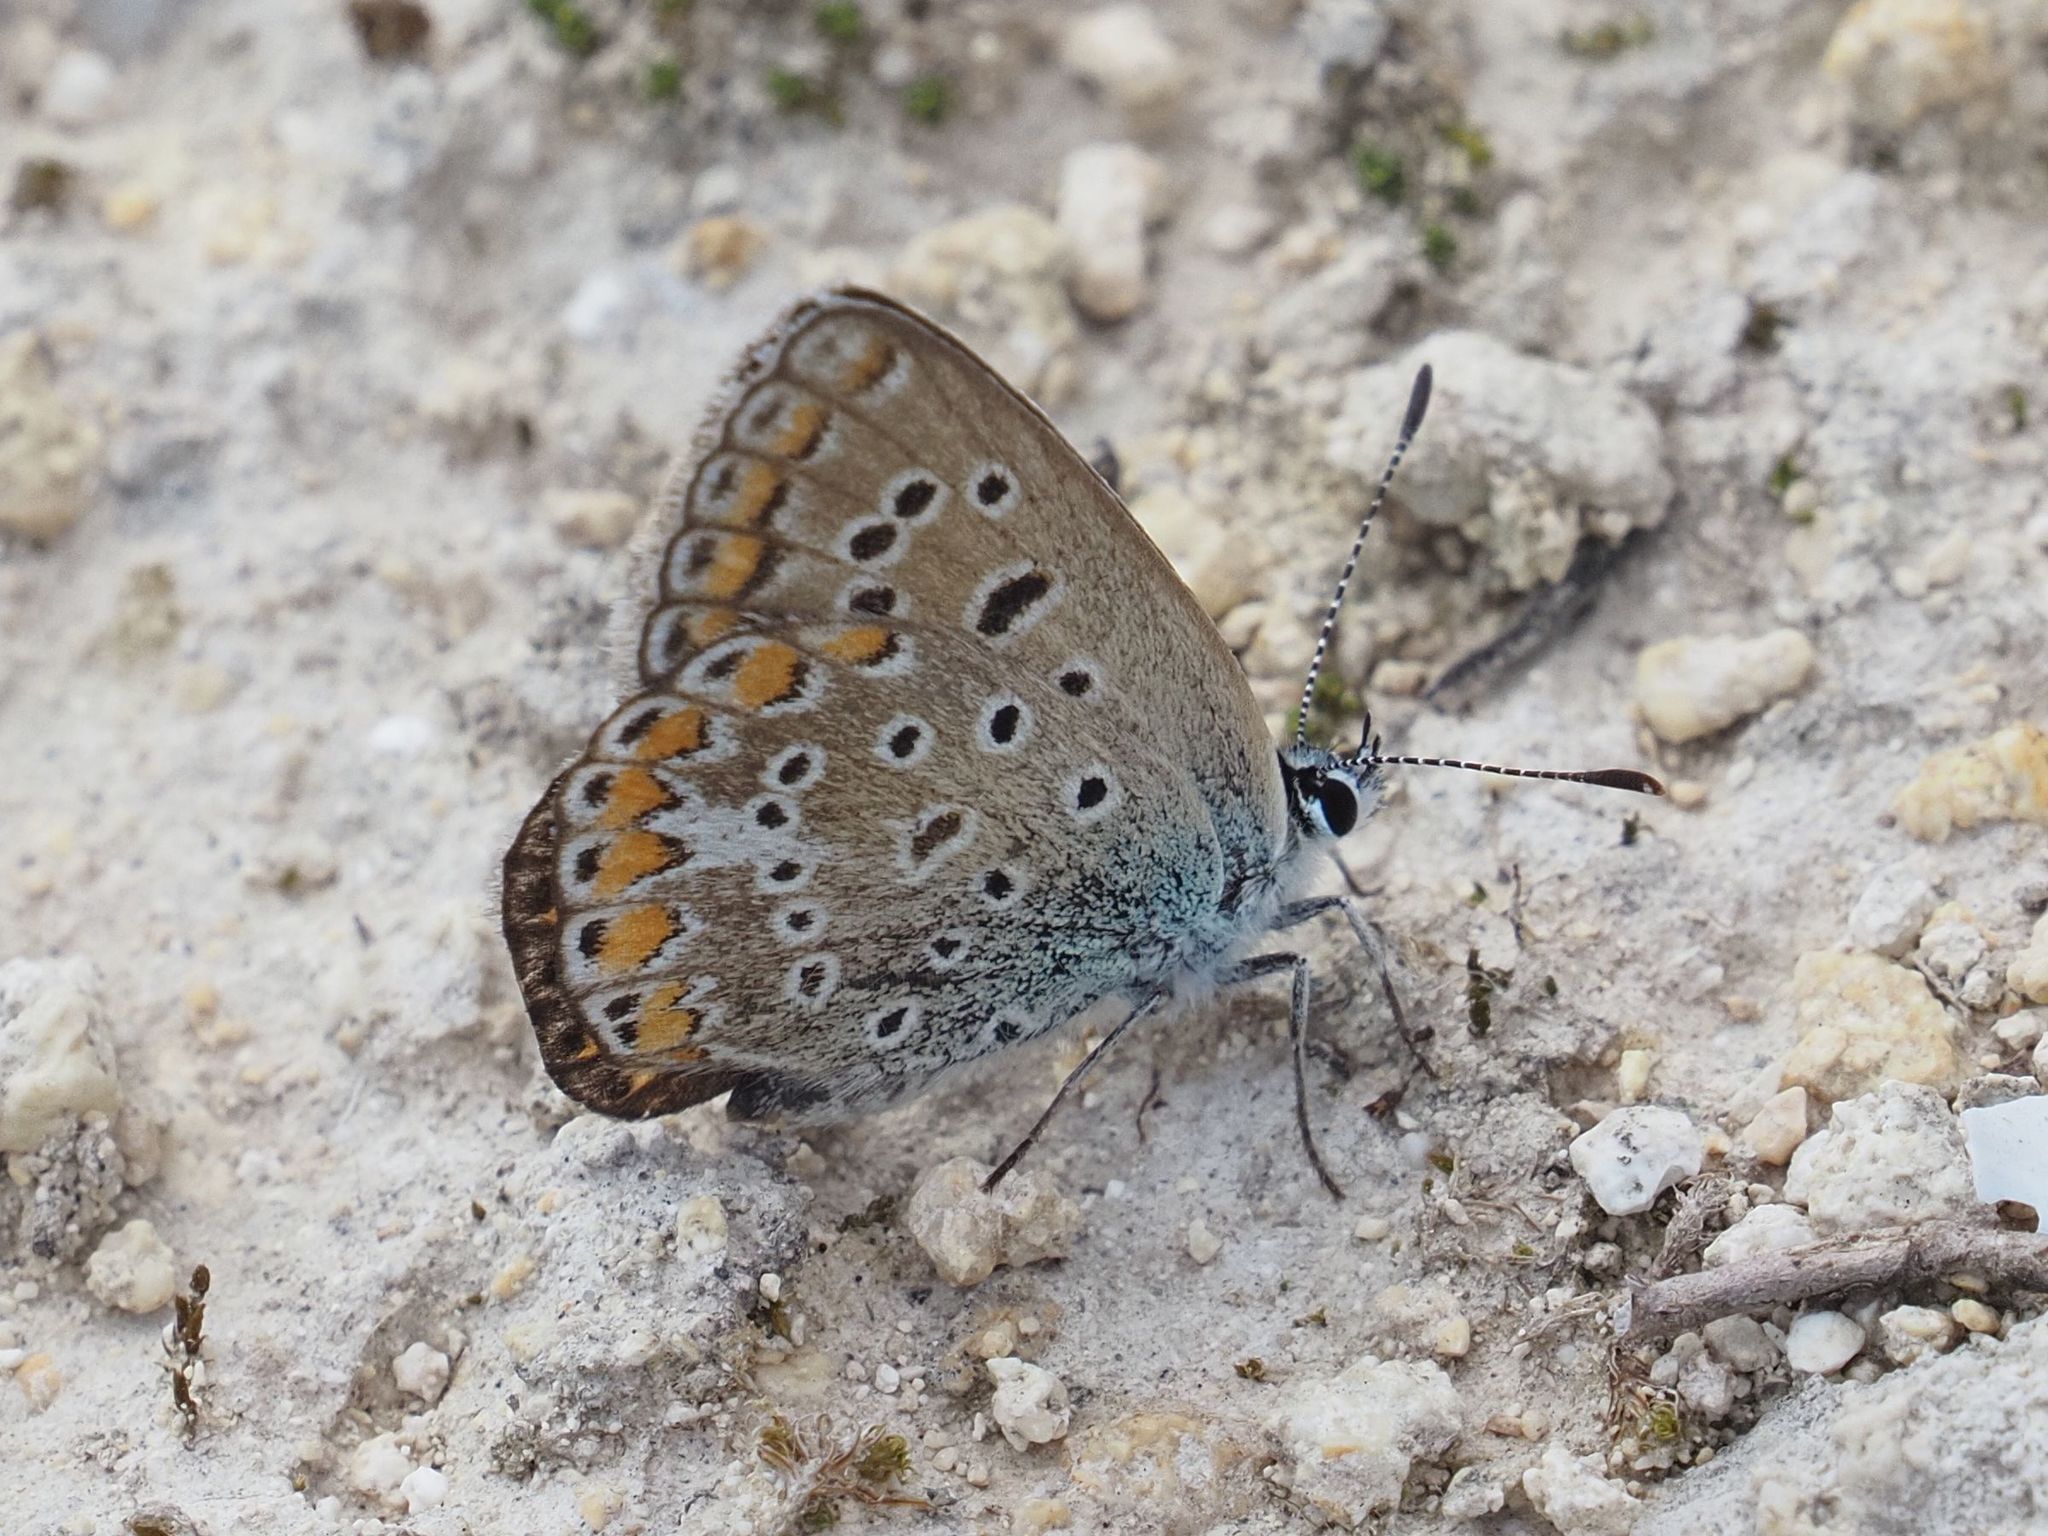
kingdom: Animalia
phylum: Arthropoda
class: Insecta
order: Lepidoptera
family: Lycaenidae
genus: Polyommatus
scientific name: Polyommatus icarus
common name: Common blue
